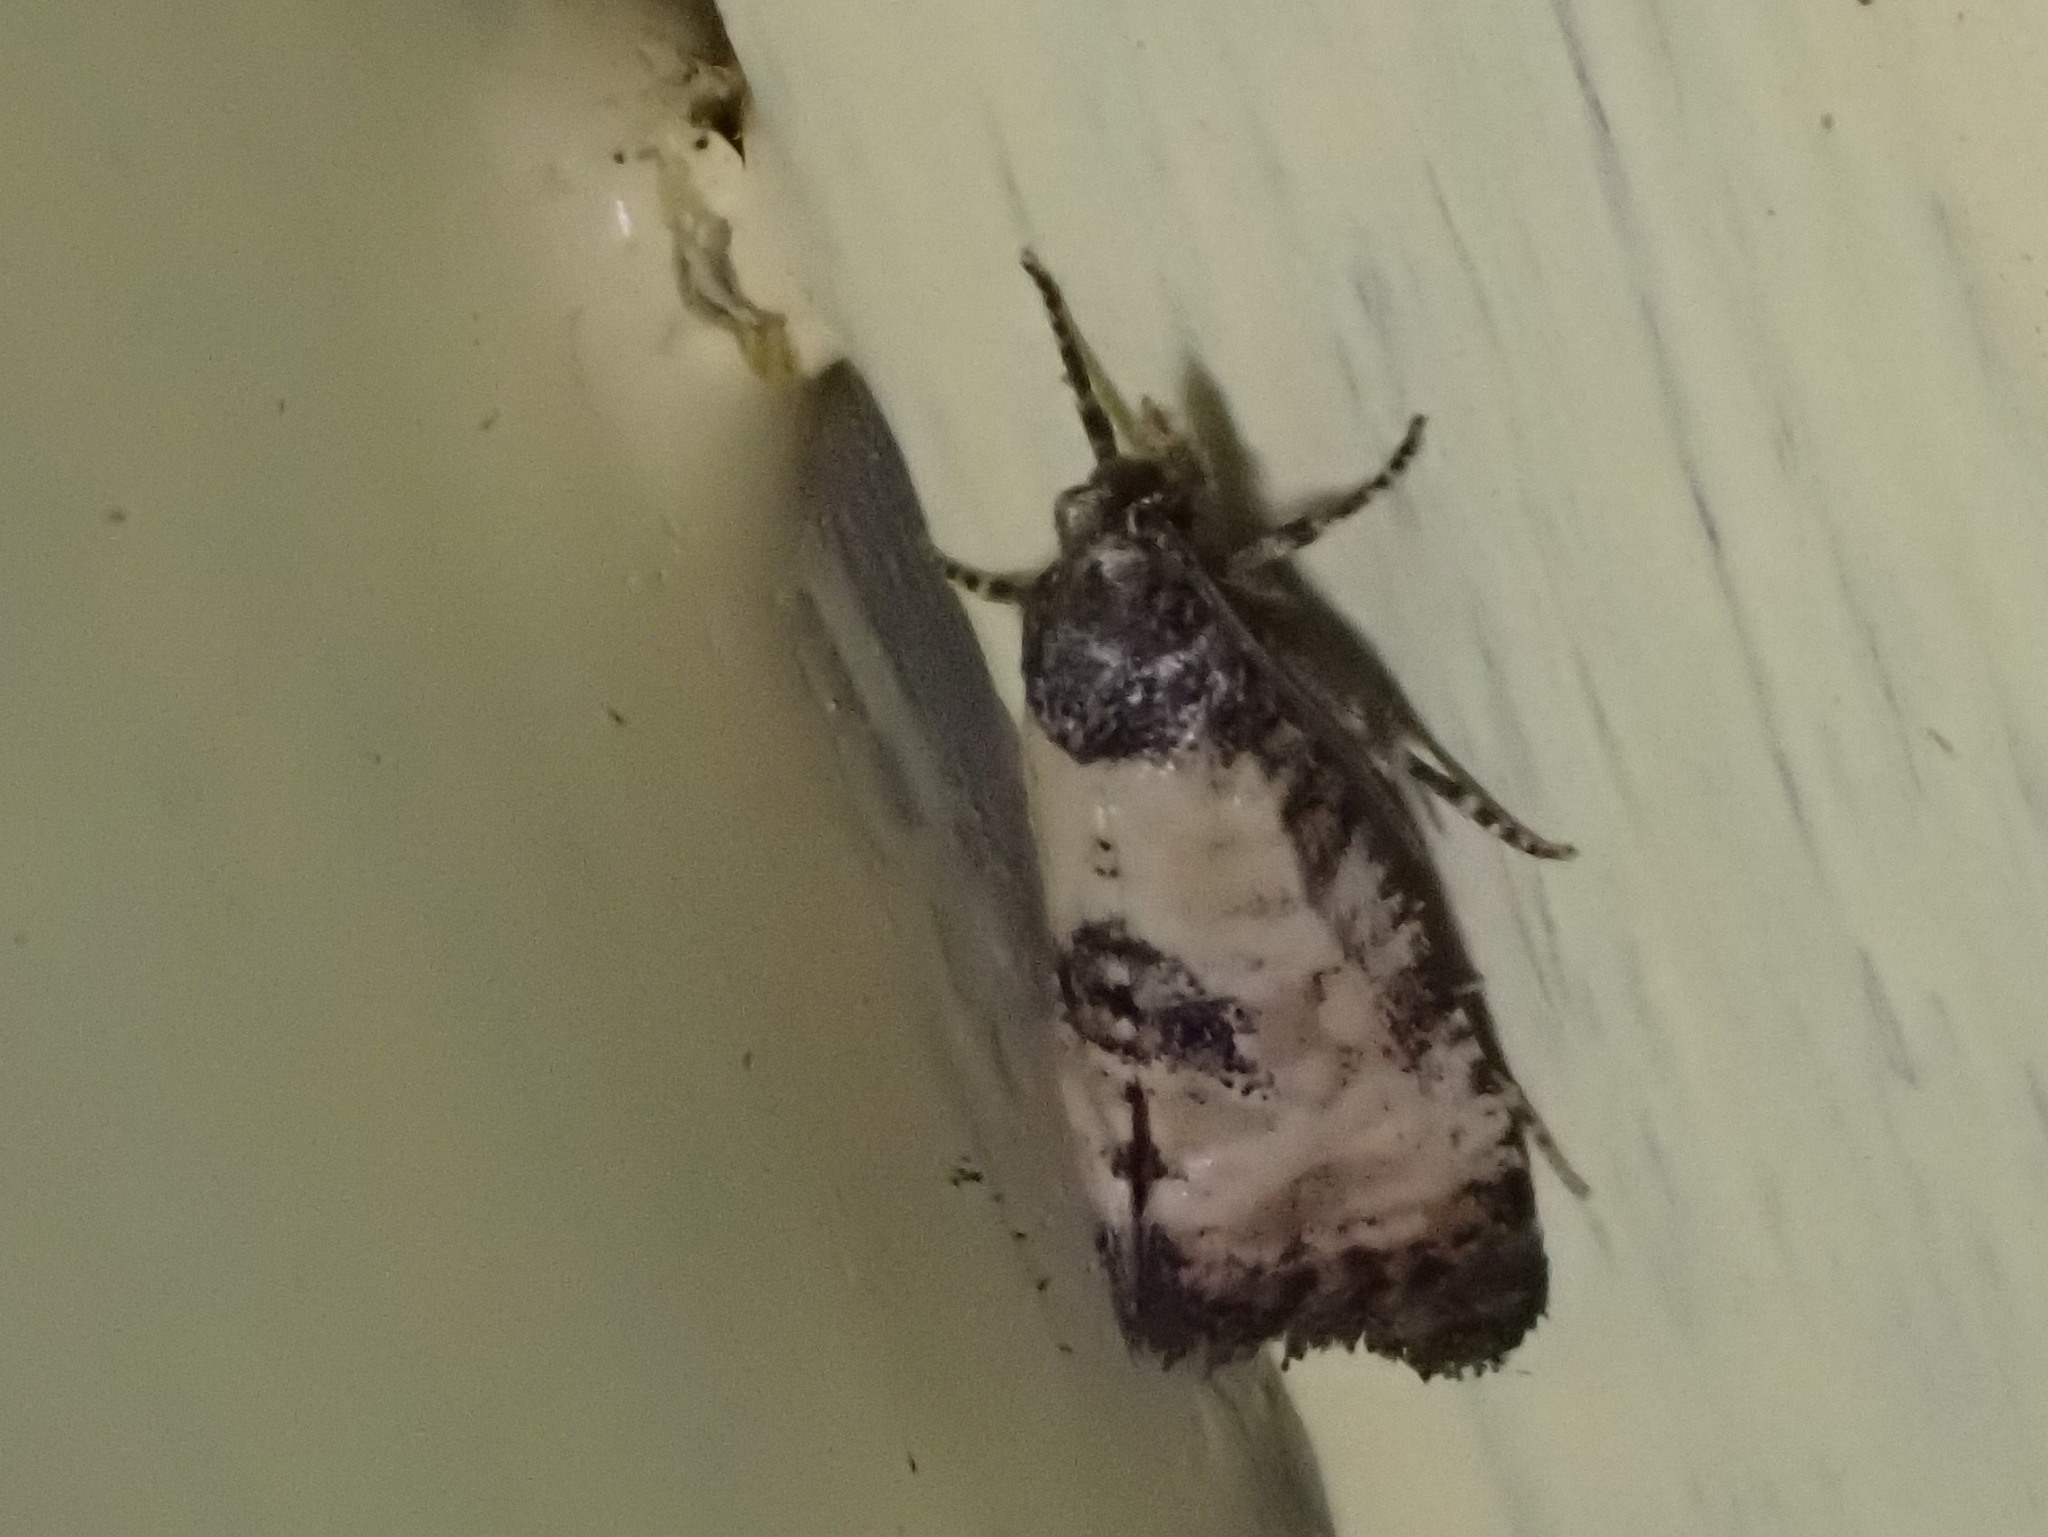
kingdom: Animalia
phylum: Arthropoda
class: Insecta
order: Lepidoptera
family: Tortricidae
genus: Cochylis
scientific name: Cochylis dubitana
